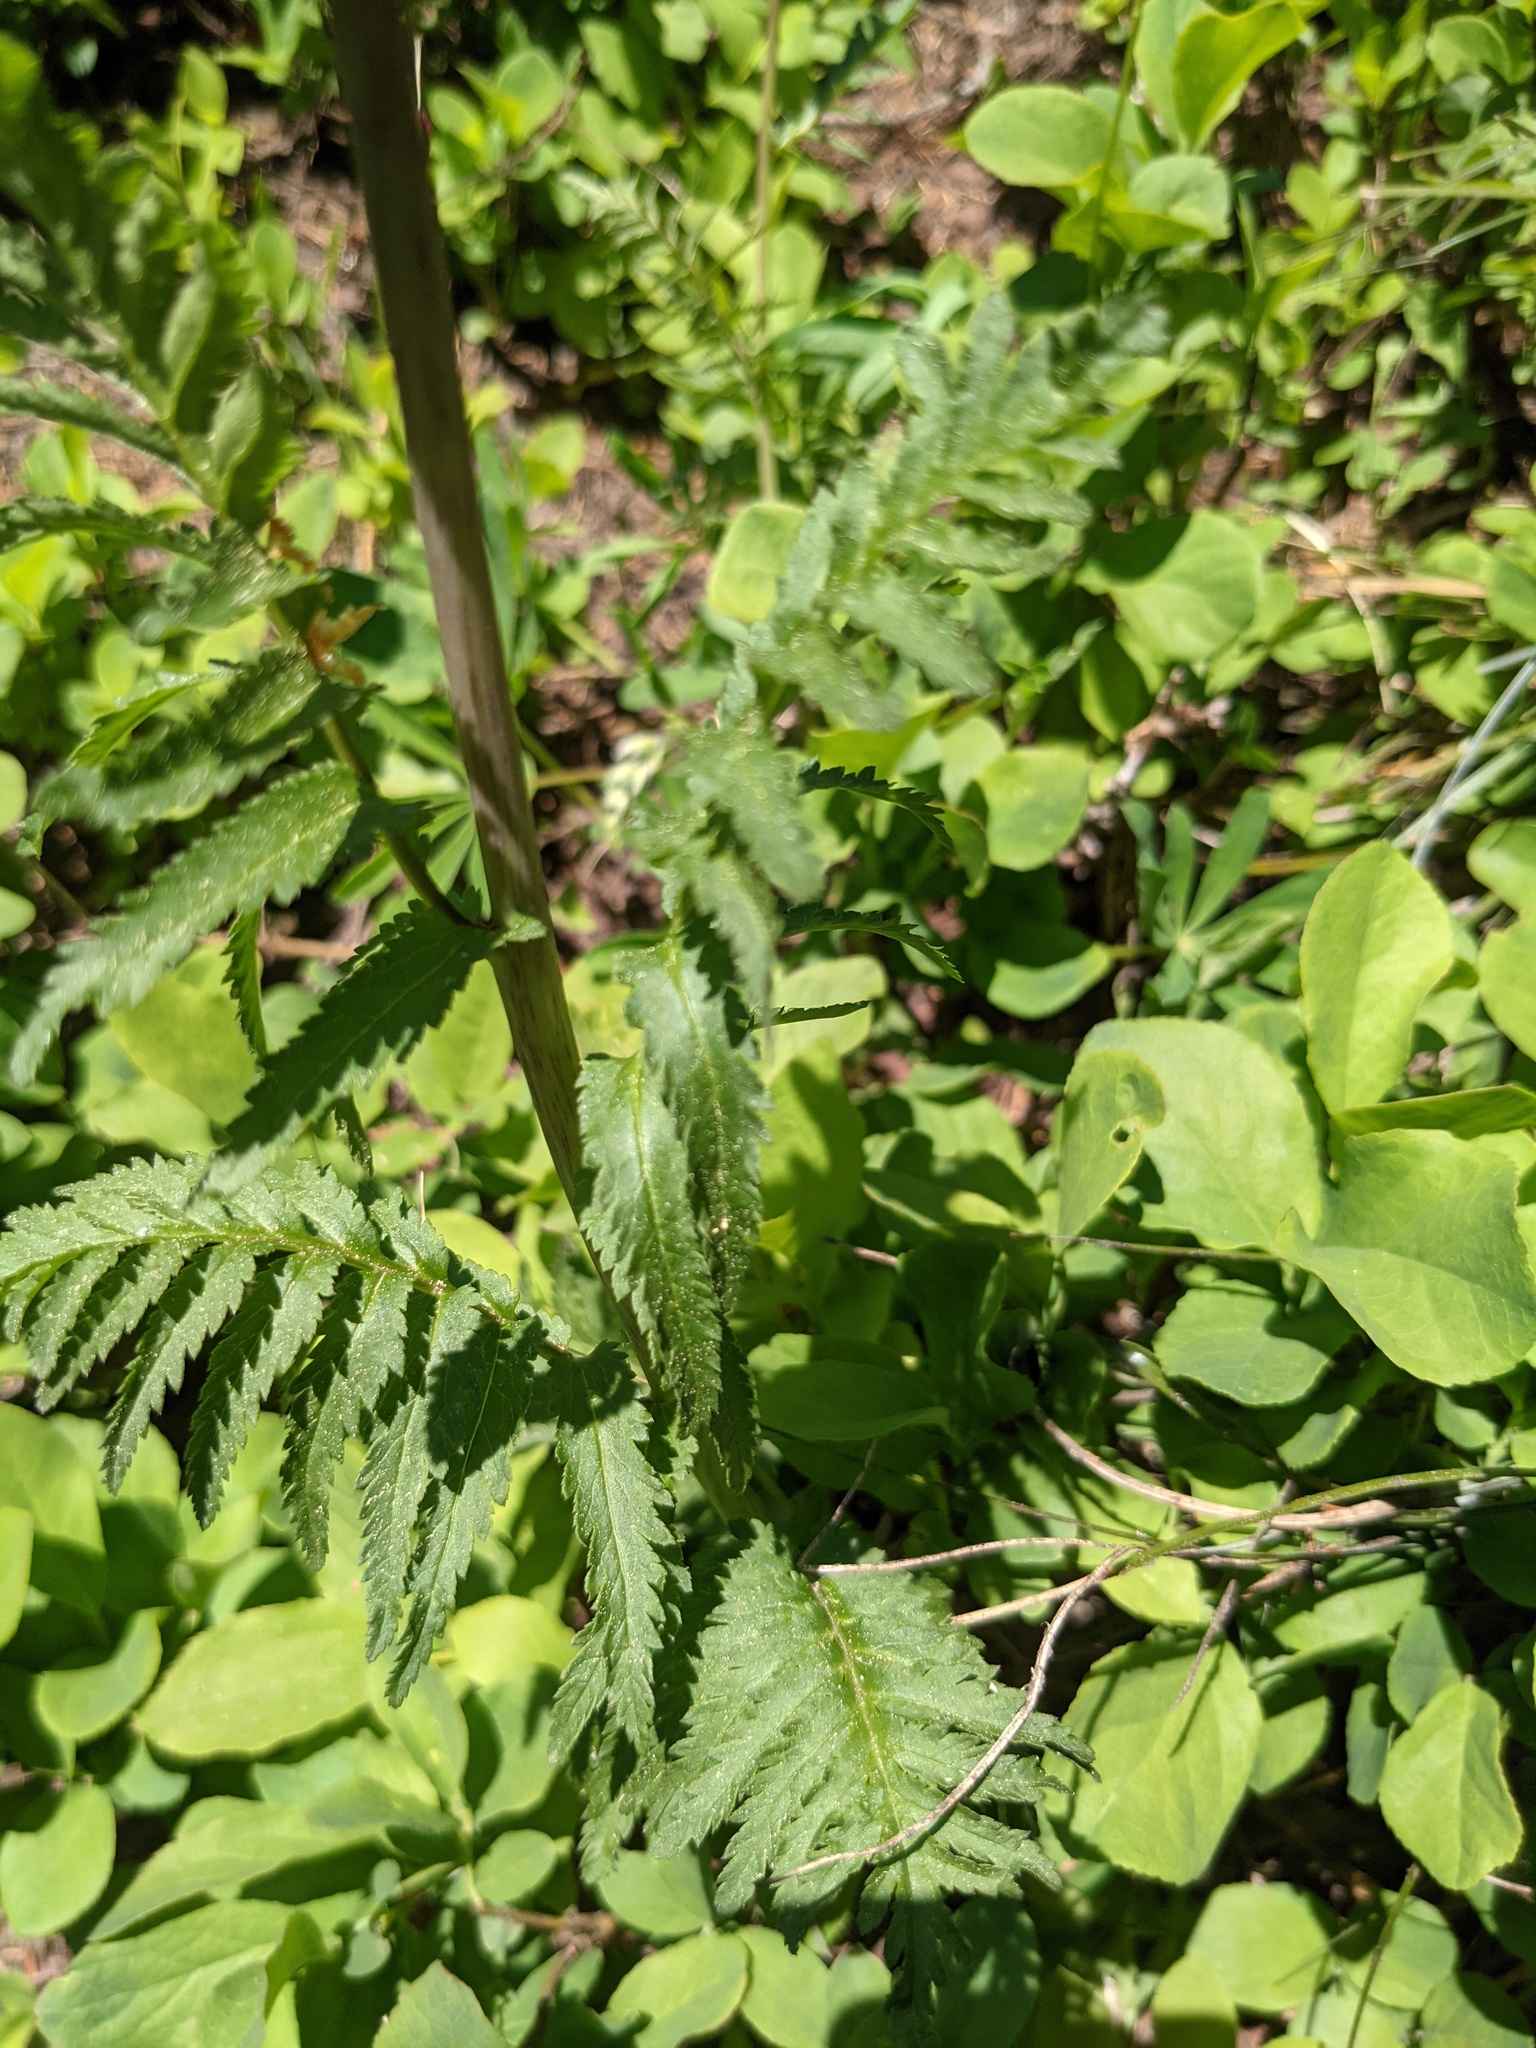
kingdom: Plantae
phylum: Tracheophyta
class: Liliopsida
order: Liliales
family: Melanthiaceae
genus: Xerophyllum
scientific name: Xerophyllum tenax
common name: Bear-grass
